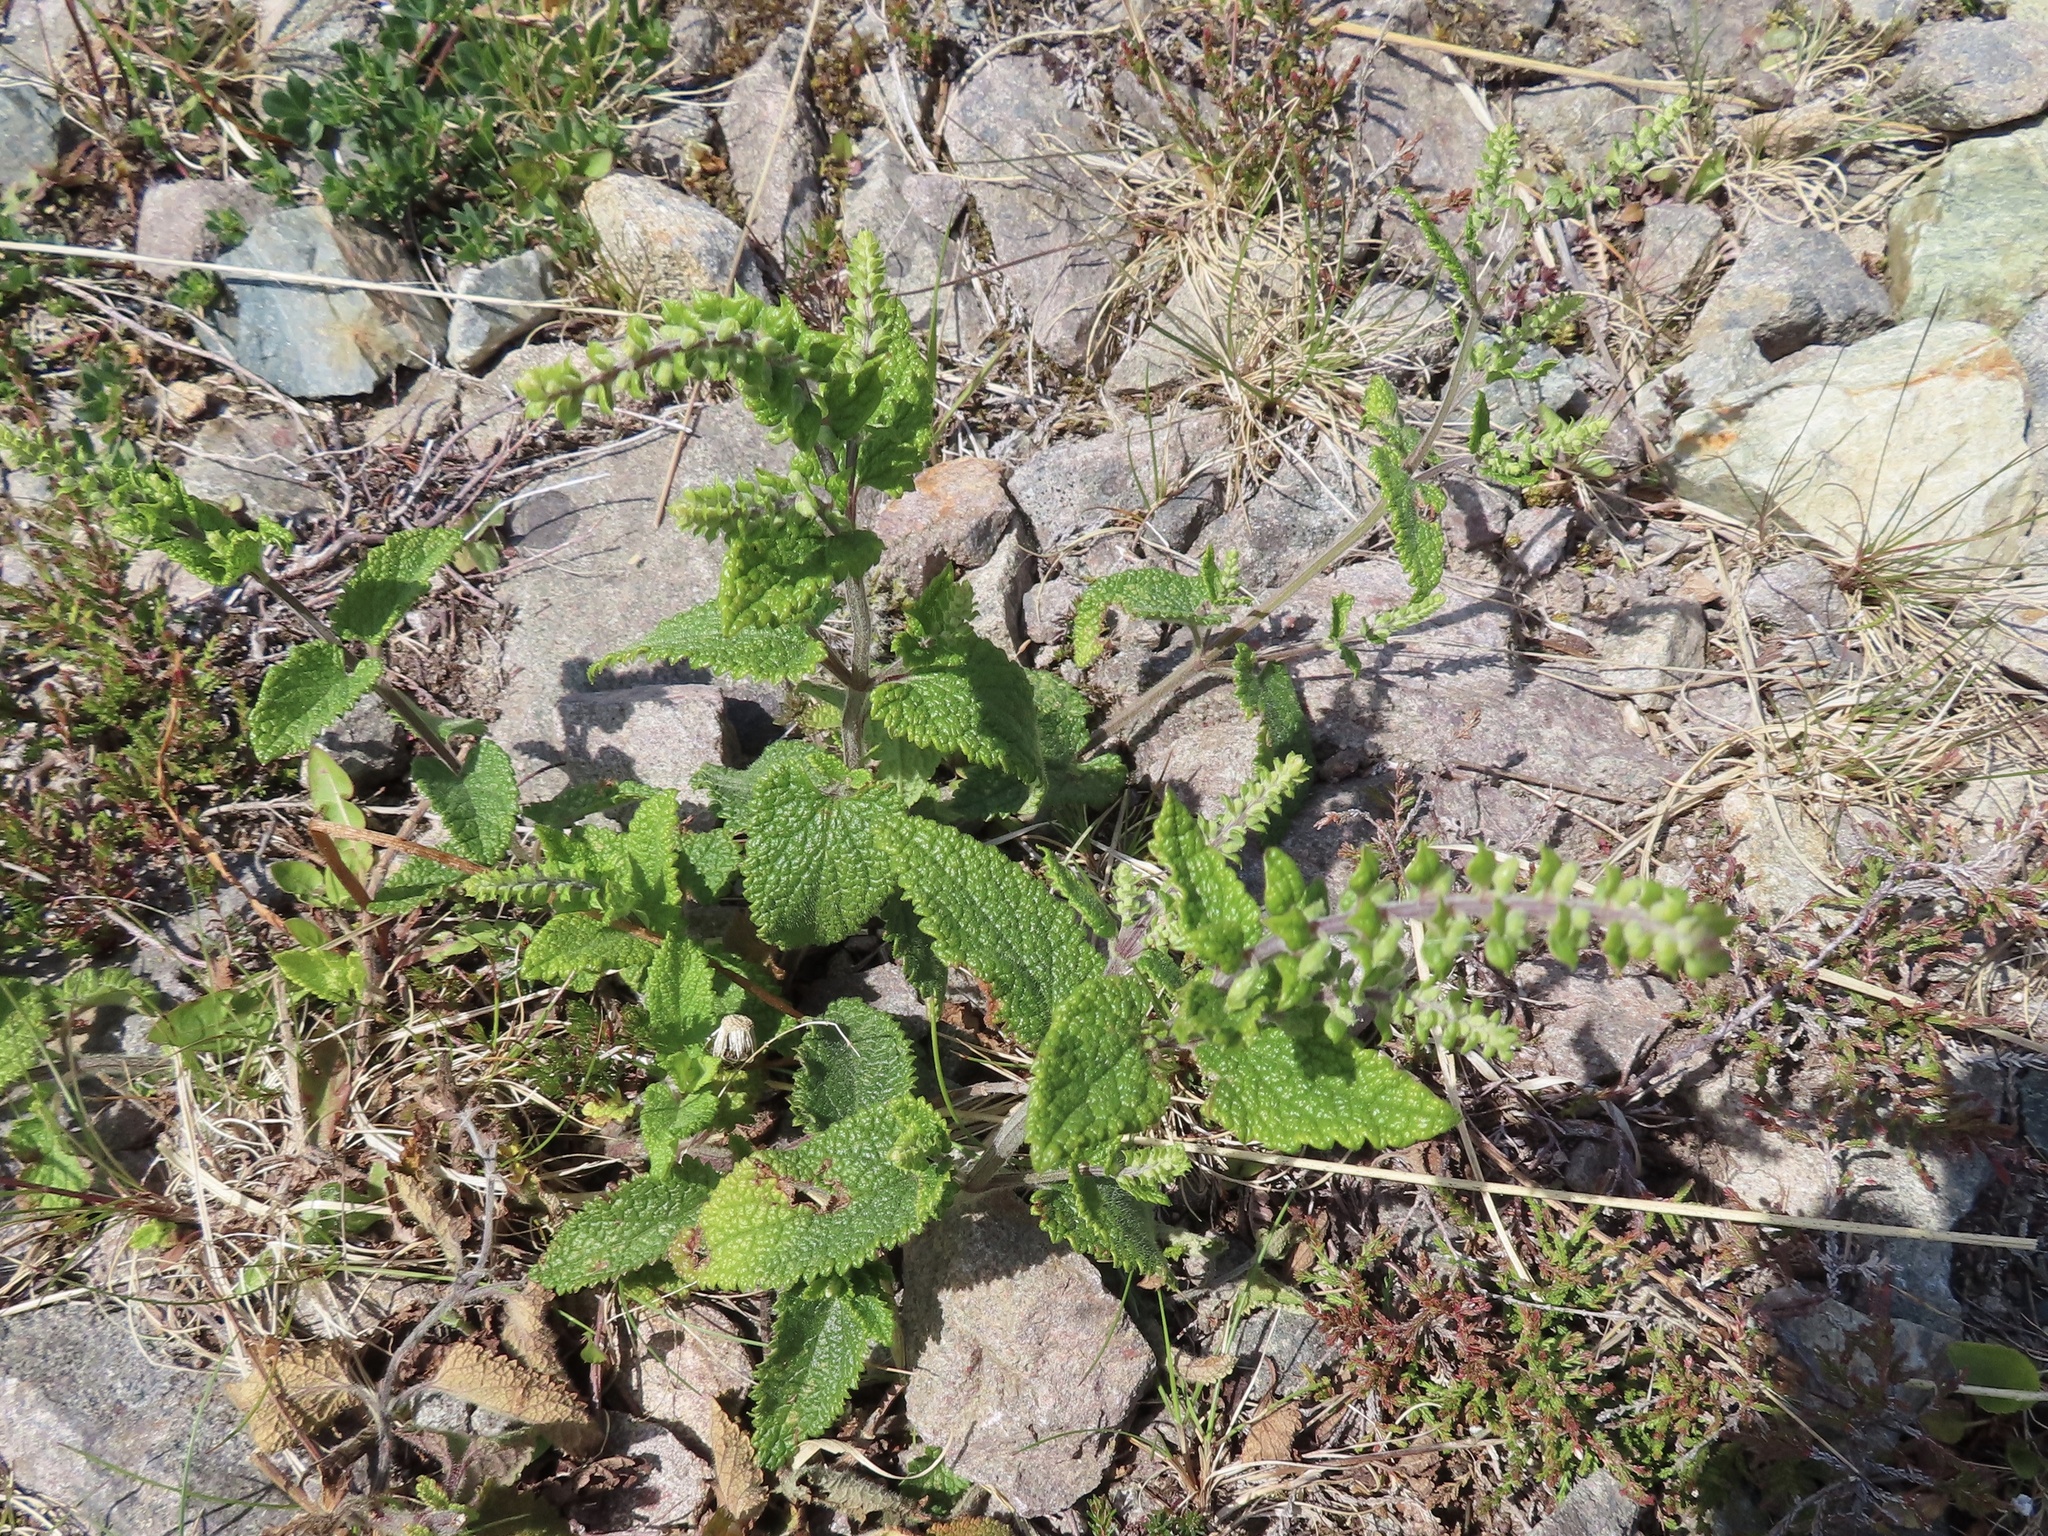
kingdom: Plantae
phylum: Tracheophyta
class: Magnoliopsida
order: Lamiales
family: Lamiaceae
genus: Teucrium
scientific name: Teucrium scorodonia
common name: Woodland germander
